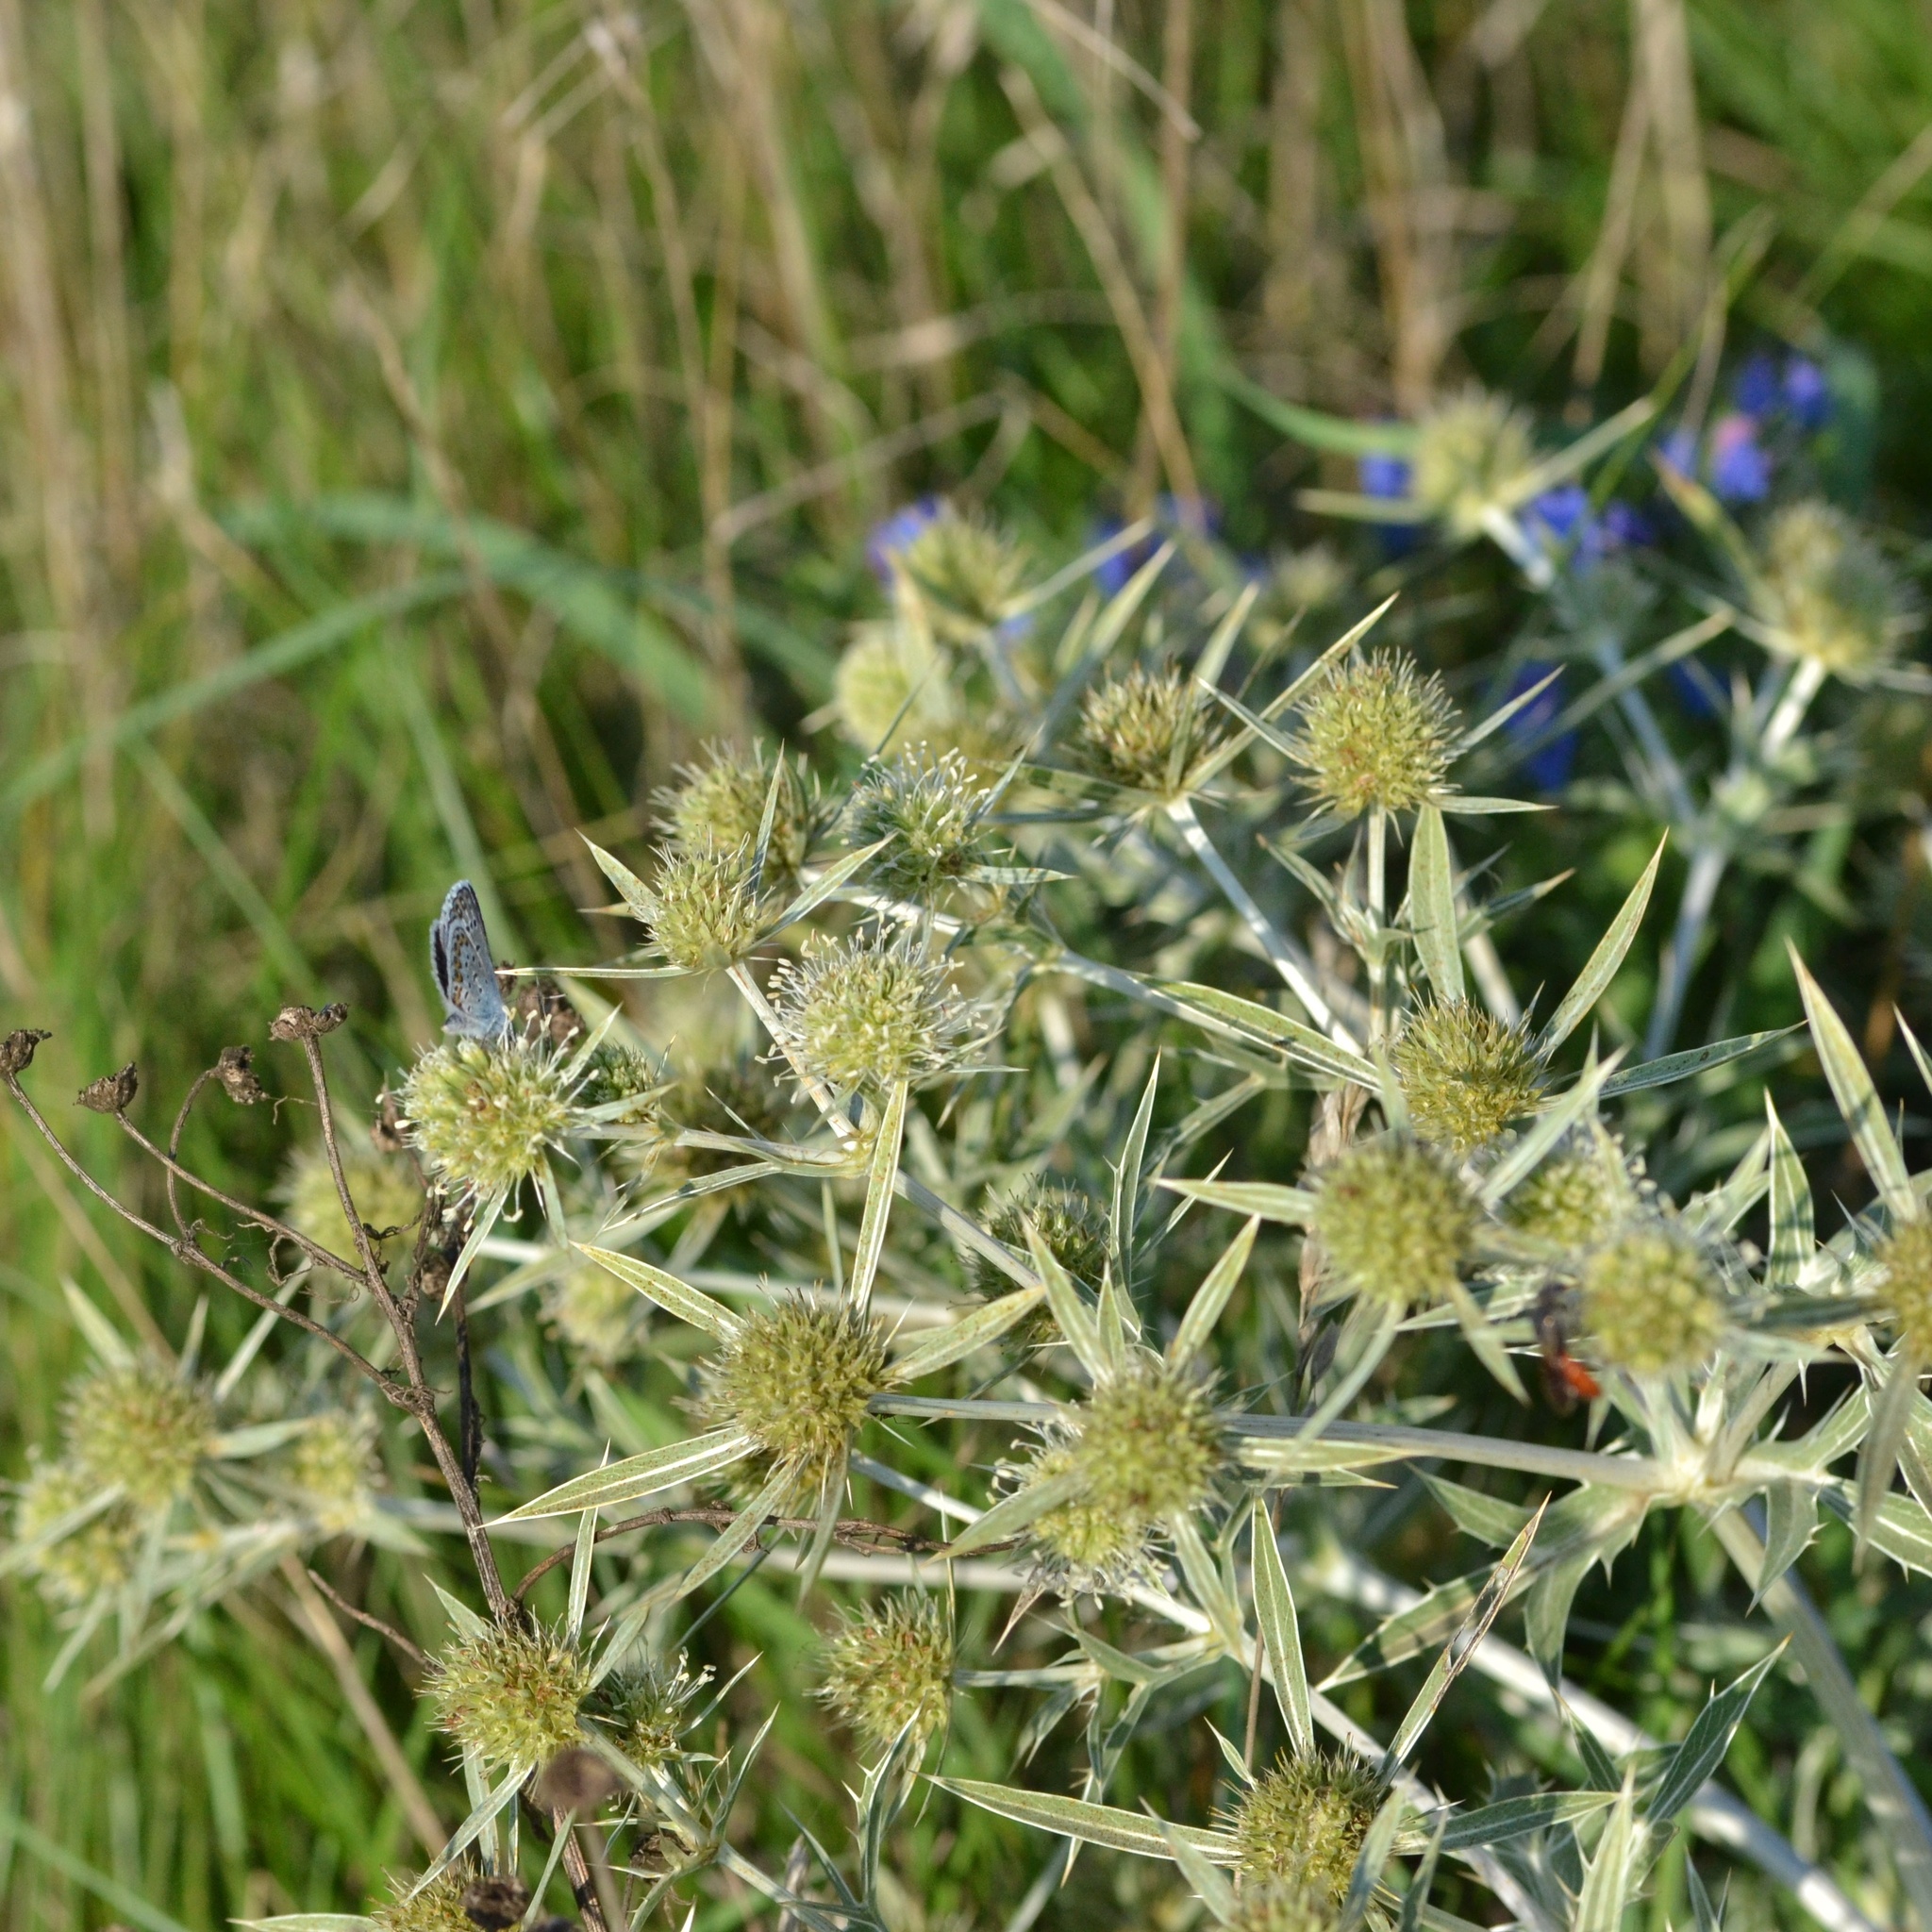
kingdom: Plantae
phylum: Tracheophyta
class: Magnoliopsida
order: Apiales
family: Apiaceae
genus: Eryngium
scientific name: Eryngium campestre
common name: Field eryngo
